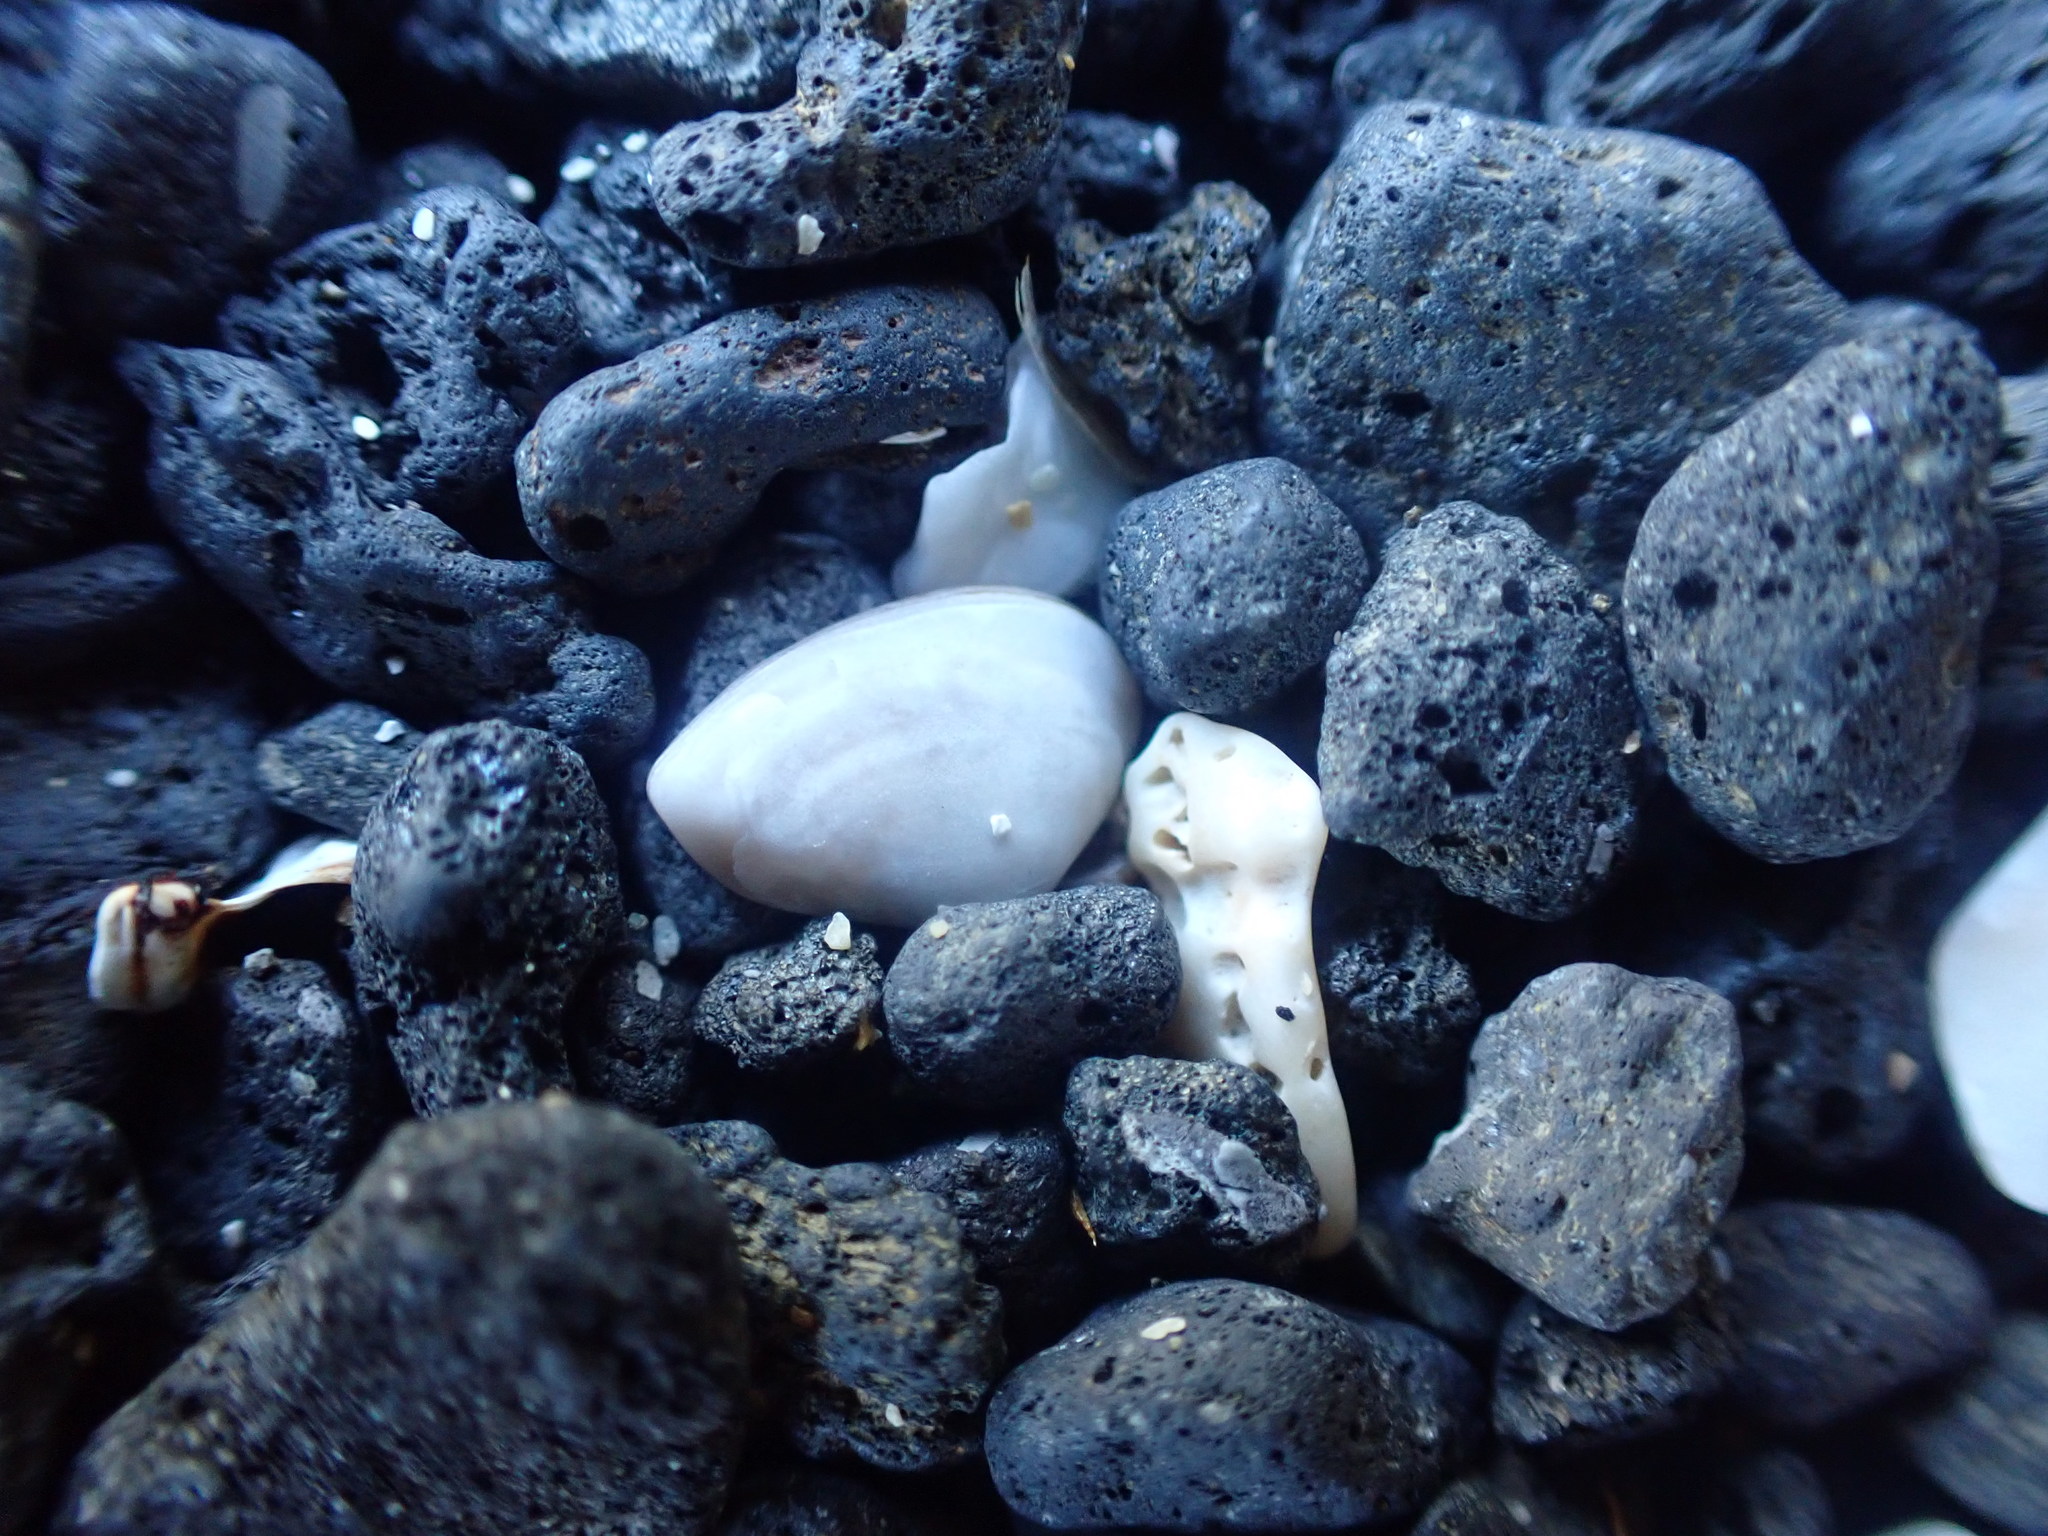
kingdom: Animalia
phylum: Mollusca
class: Bivalvia
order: Myida
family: Corbulidae
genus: Corbula
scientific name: Corbula zelandica
